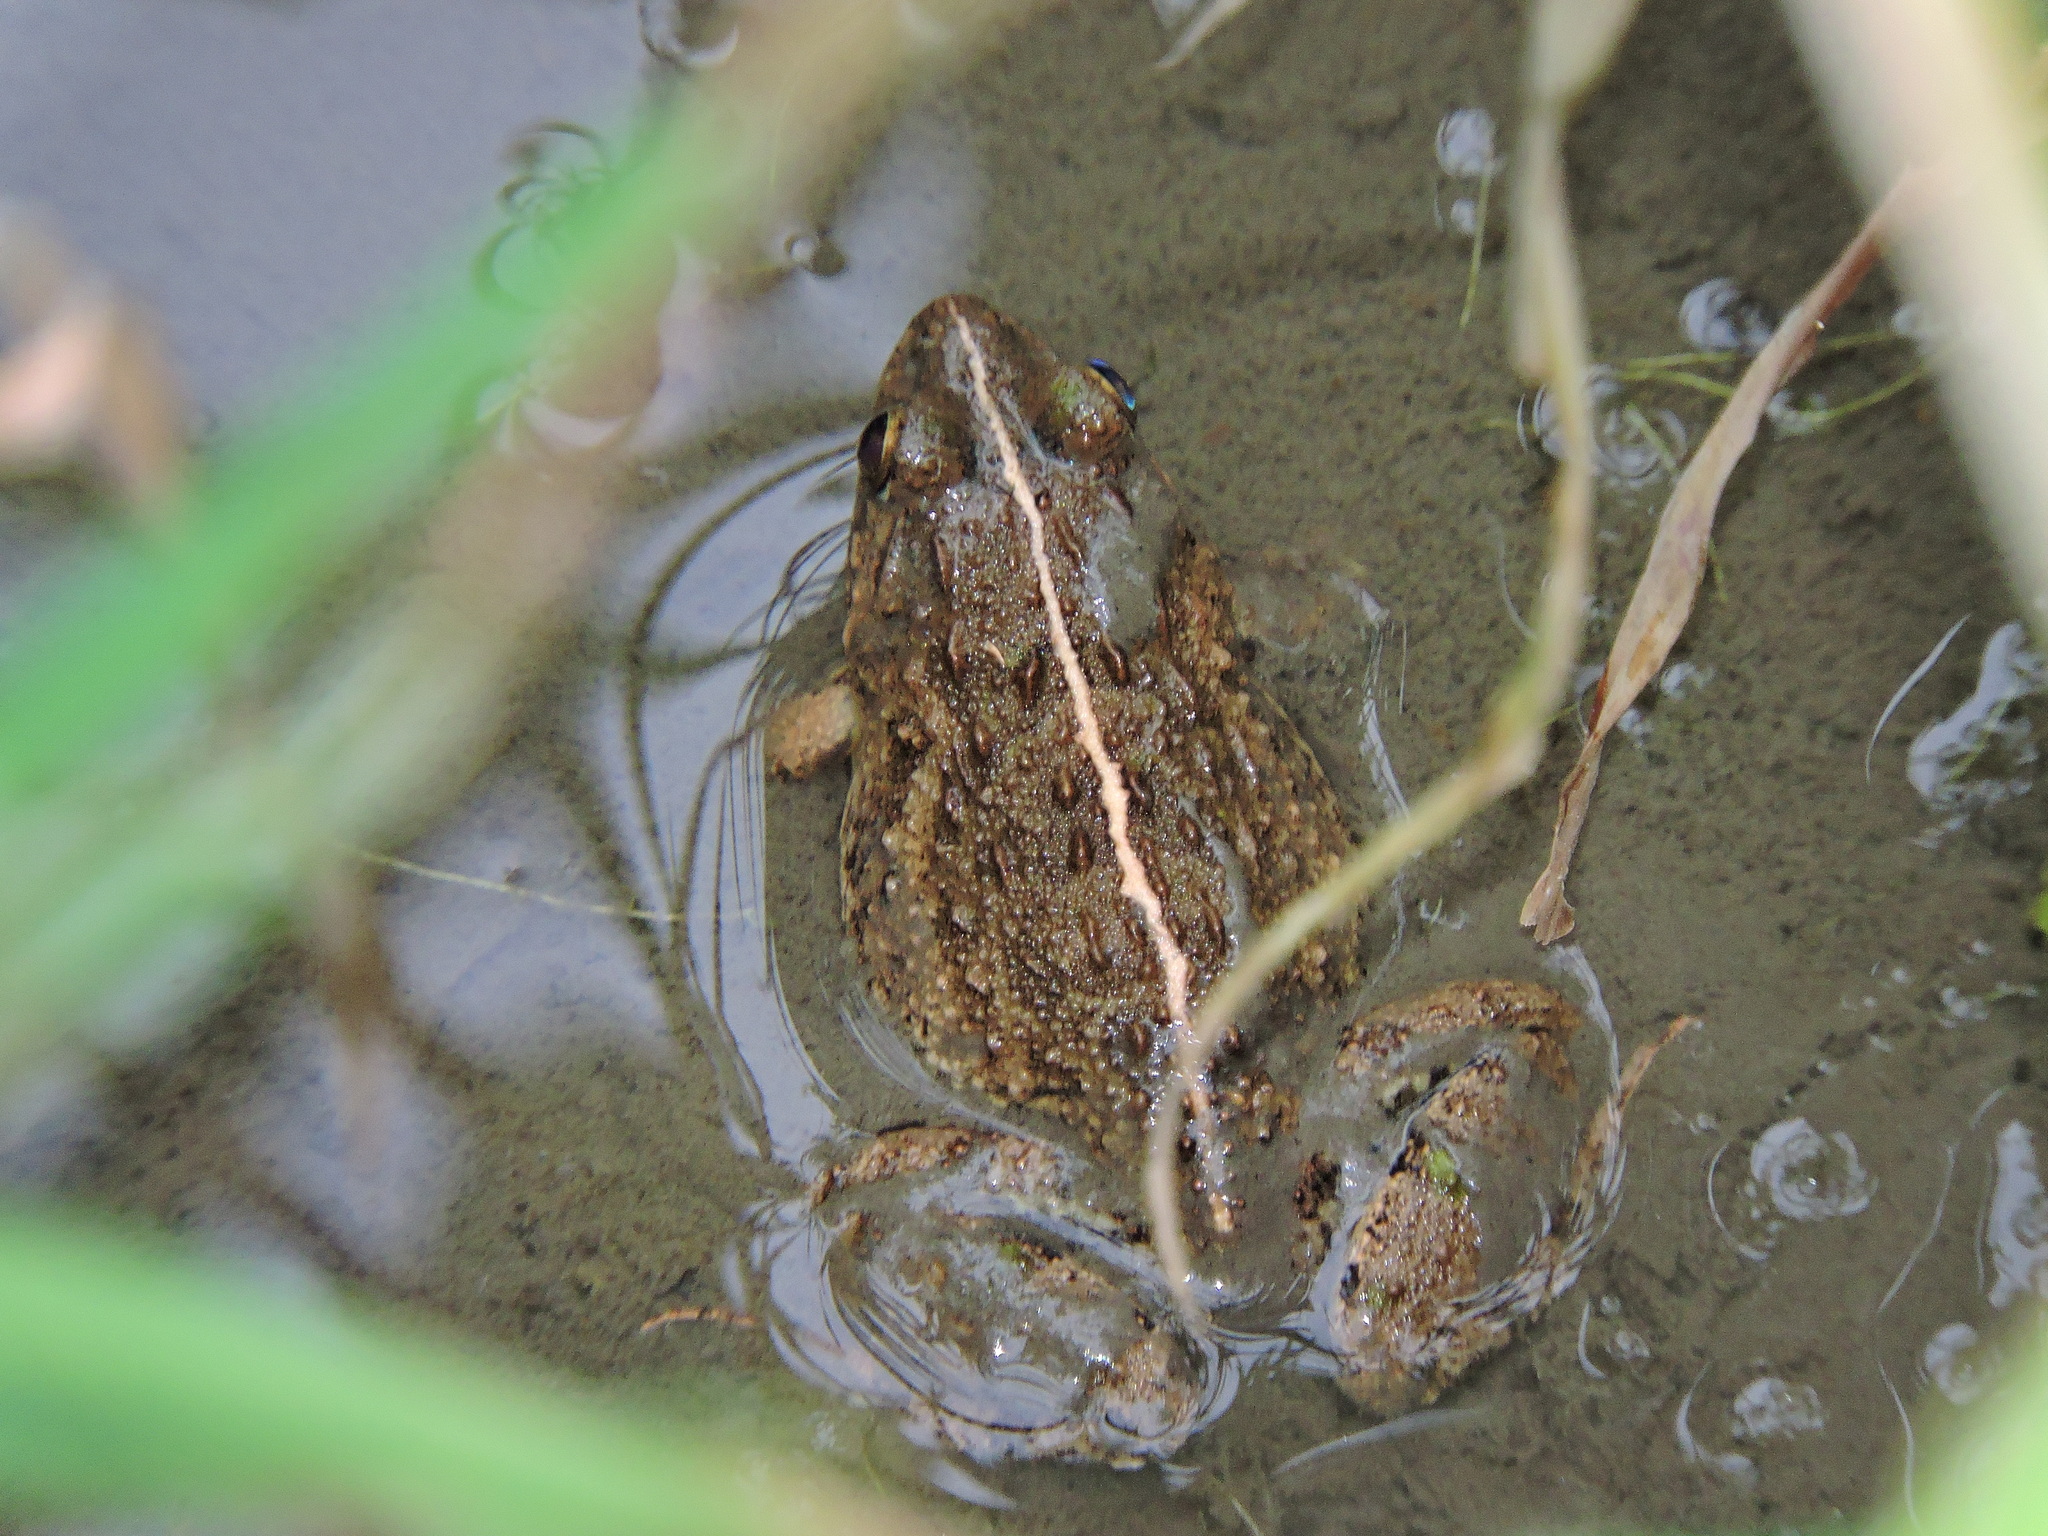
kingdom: Animalia
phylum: Chordata
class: Amphibia
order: Anura
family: Dicroglossidae
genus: Fejervarya
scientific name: Fejervarya limnocharis
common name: Asian grass frog/common pond frog/field frog/grass frog/indian rice frog
